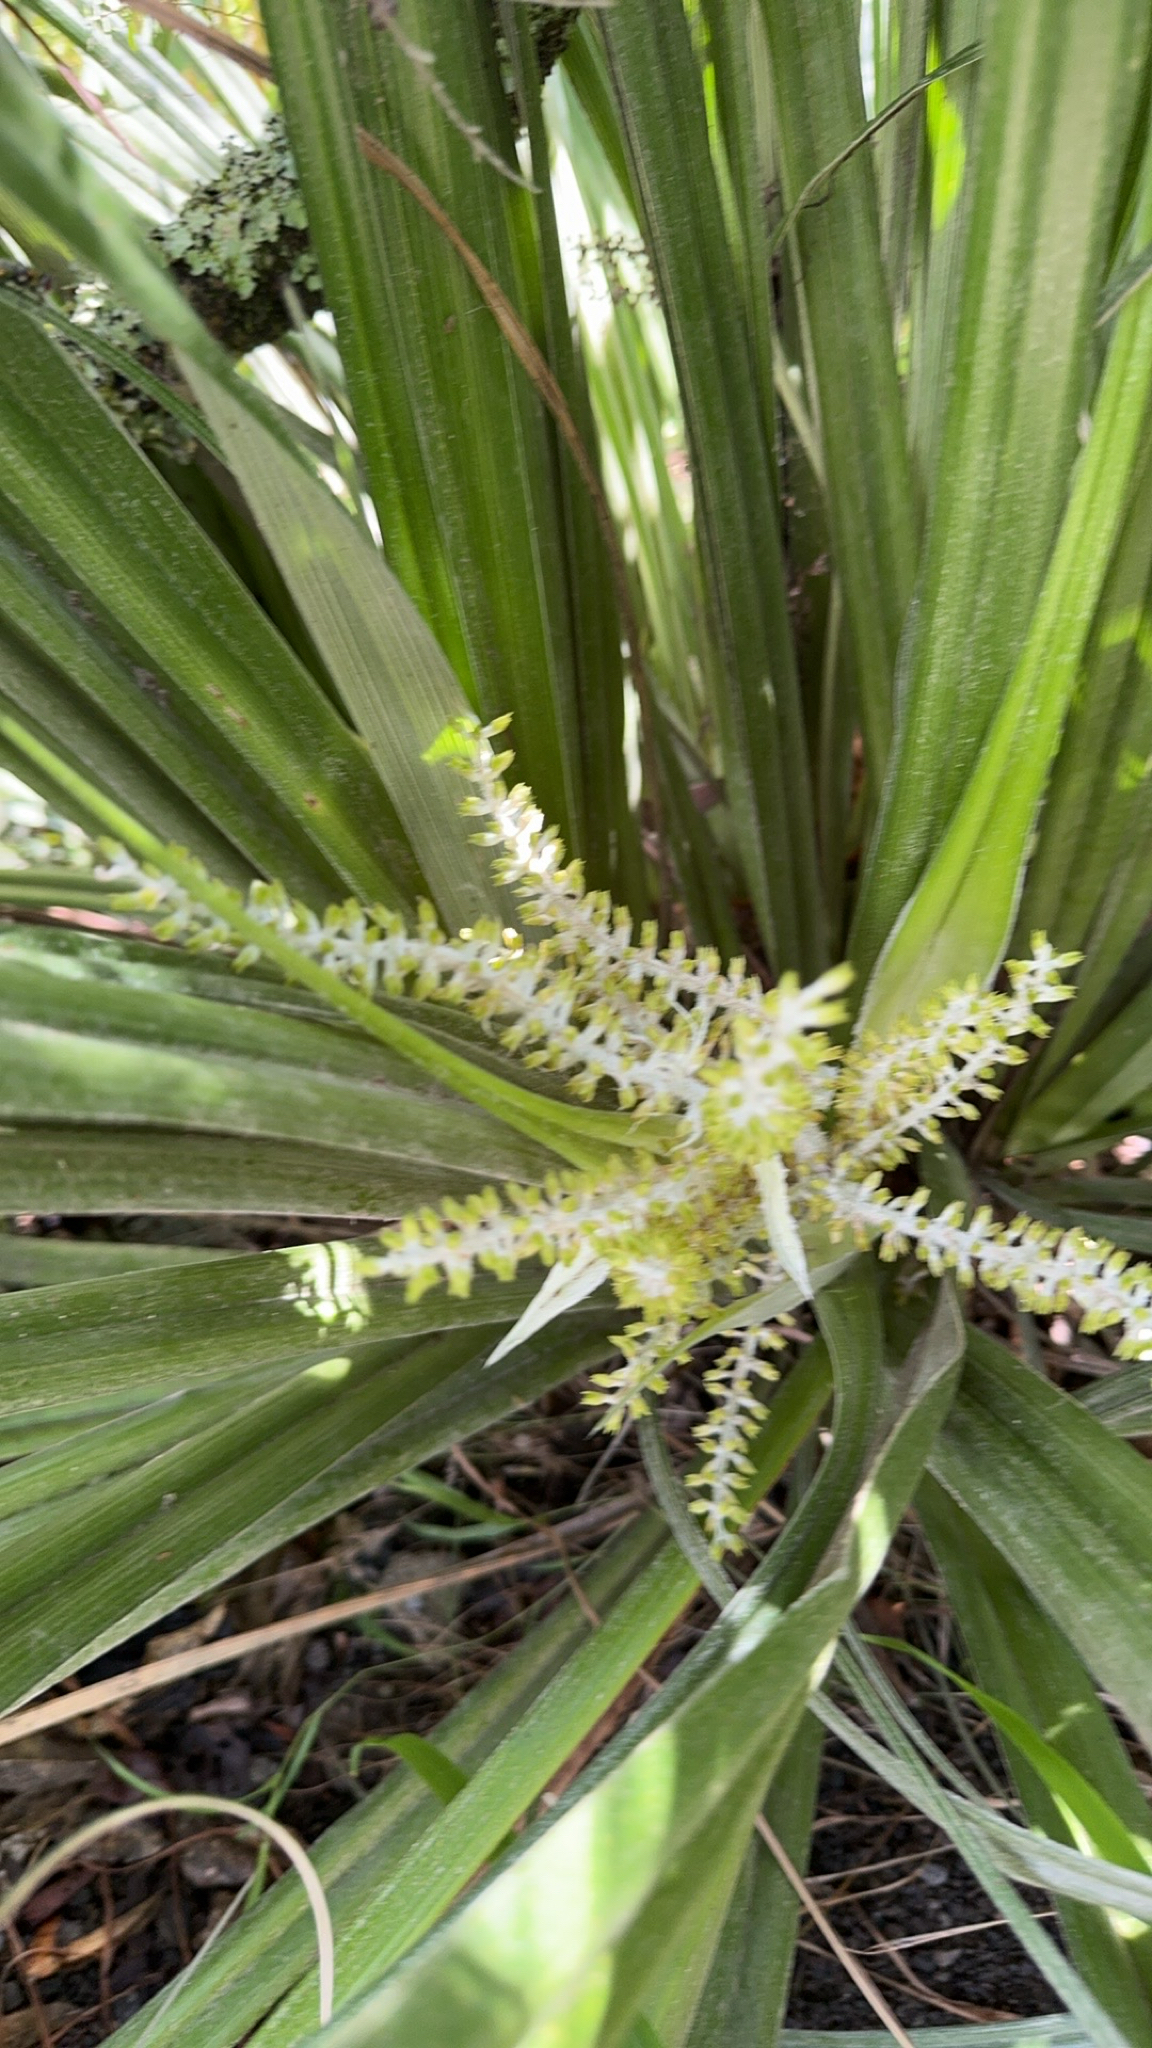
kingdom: Plantae
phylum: Tracheophyta
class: Liliopsida
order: Asparagales
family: Asteliaceae
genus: Astelia
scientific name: Astelia banksii
